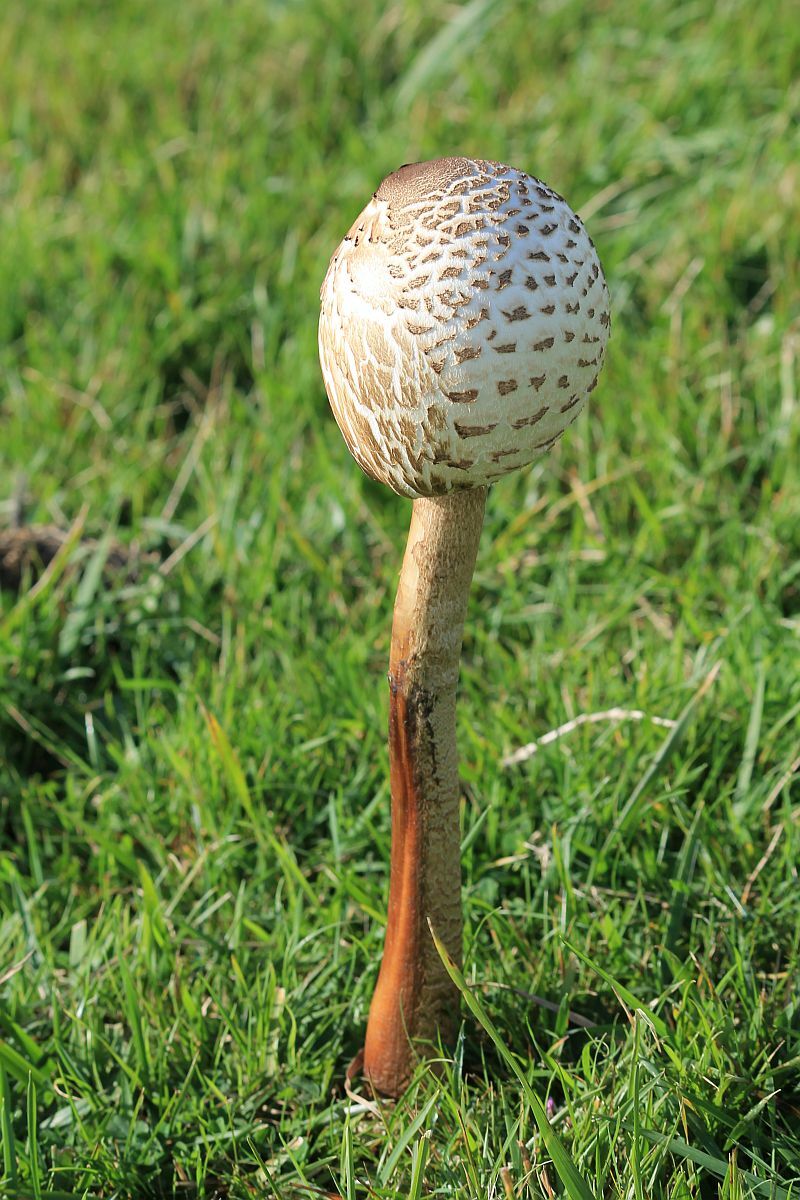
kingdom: Fungi
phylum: Basidiomycota
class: Agaricomycetes
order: Agaricales
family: Agaricaceae
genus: Macrolepiota
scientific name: Macrolepiota procera
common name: Parasol
